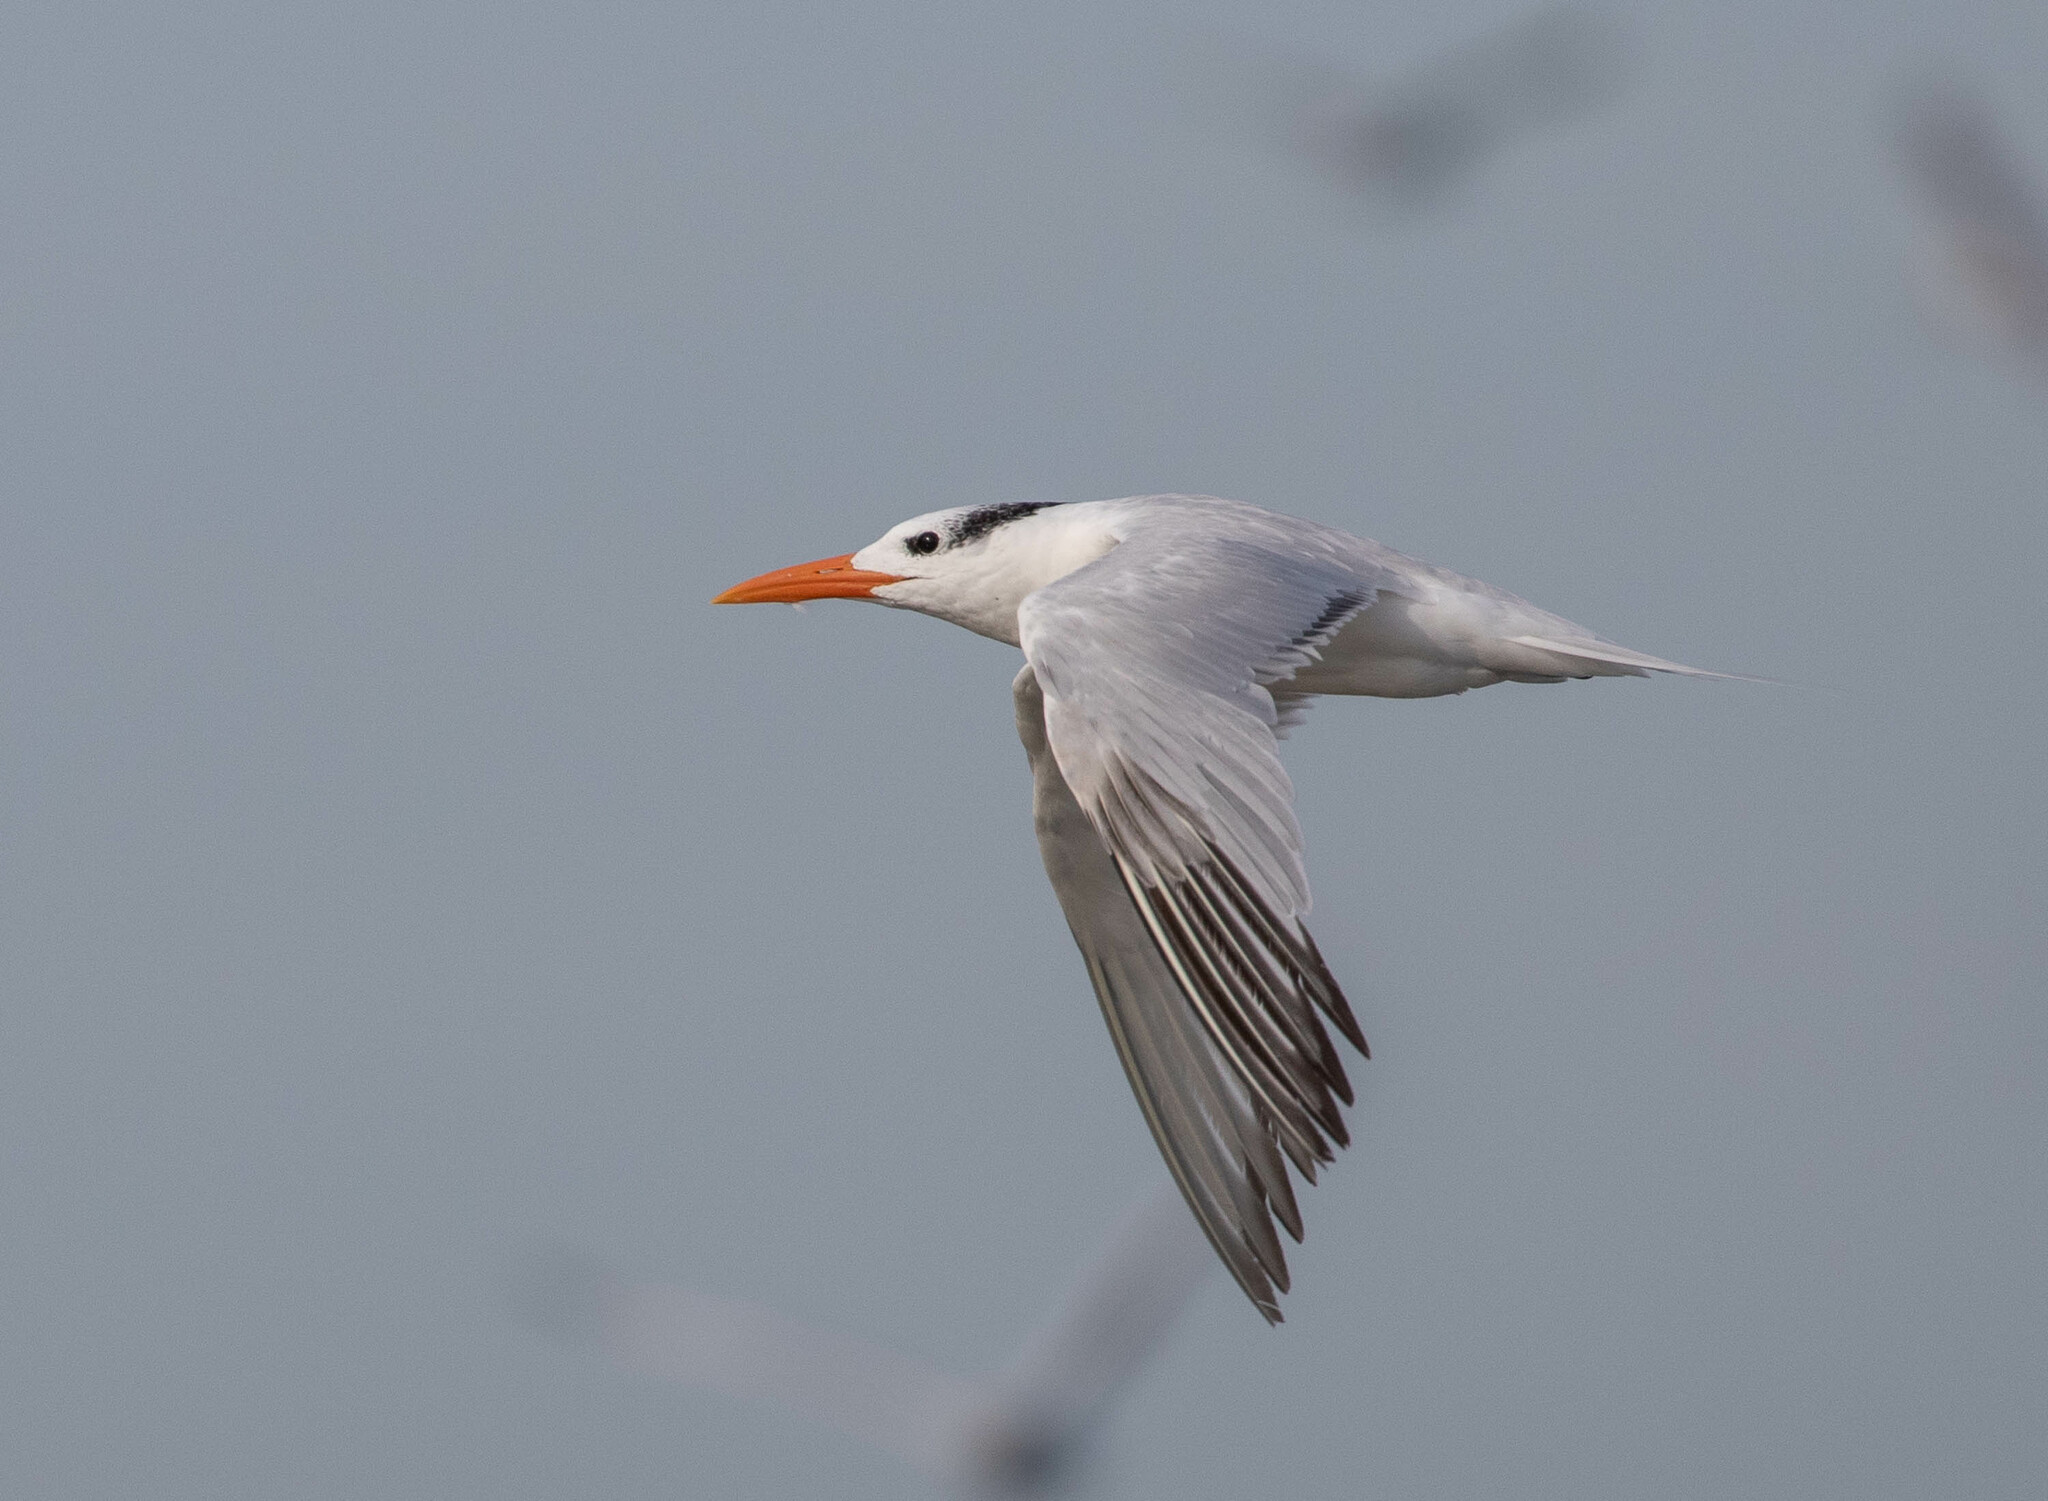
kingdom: Animalia
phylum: Chordata
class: Aves
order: Charadriiformes
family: Laridae
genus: Thalasseus
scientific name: Thalasseus maximus
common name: Royal tern
